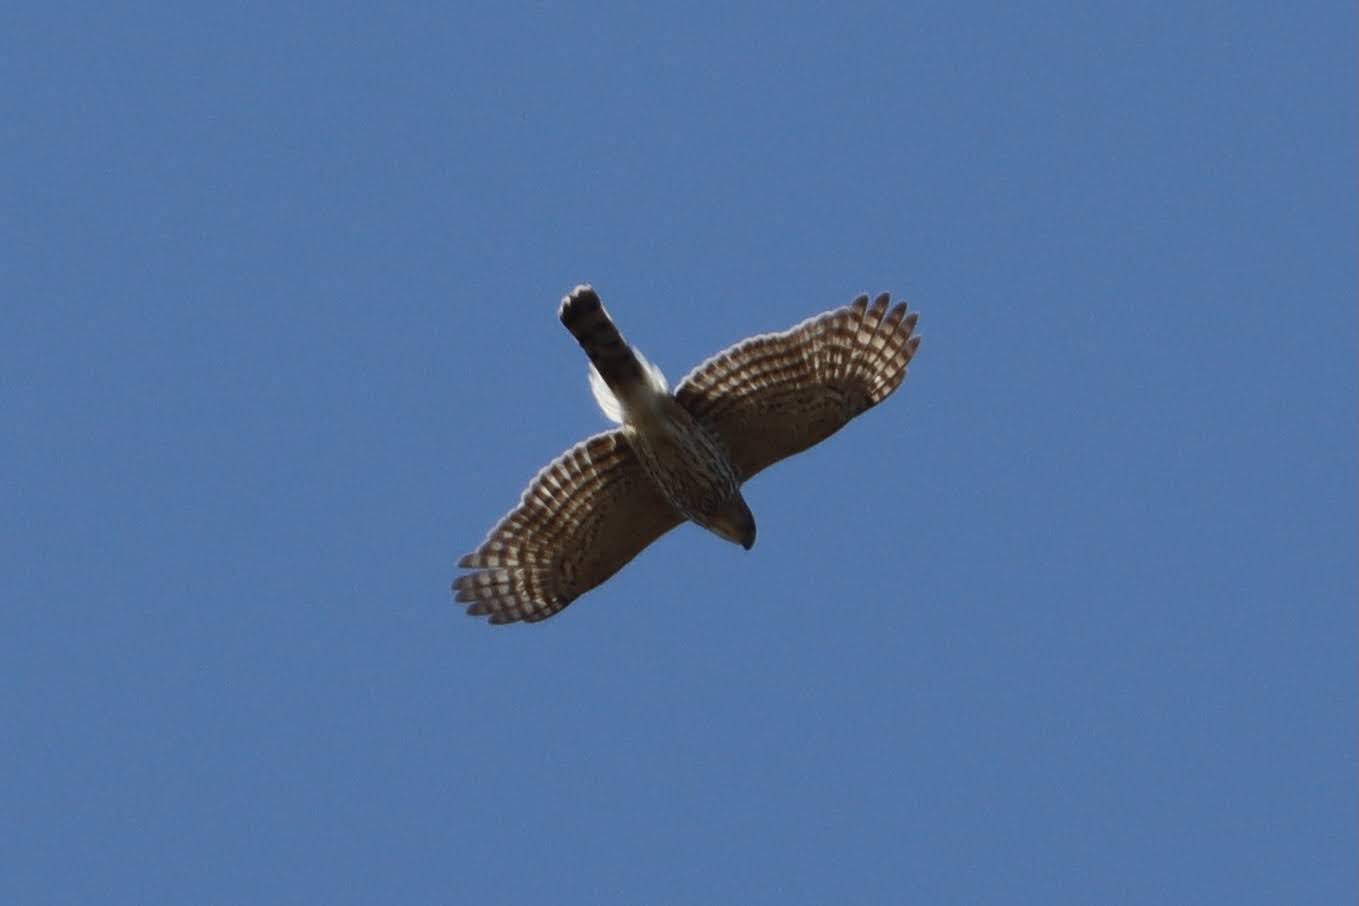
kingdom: Animalia
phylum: Chordata
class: Aves
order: Accipitriformes
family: Accipitridae
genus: Accipiter
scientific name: Accipiter cooperii
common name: Cooper's hawk
